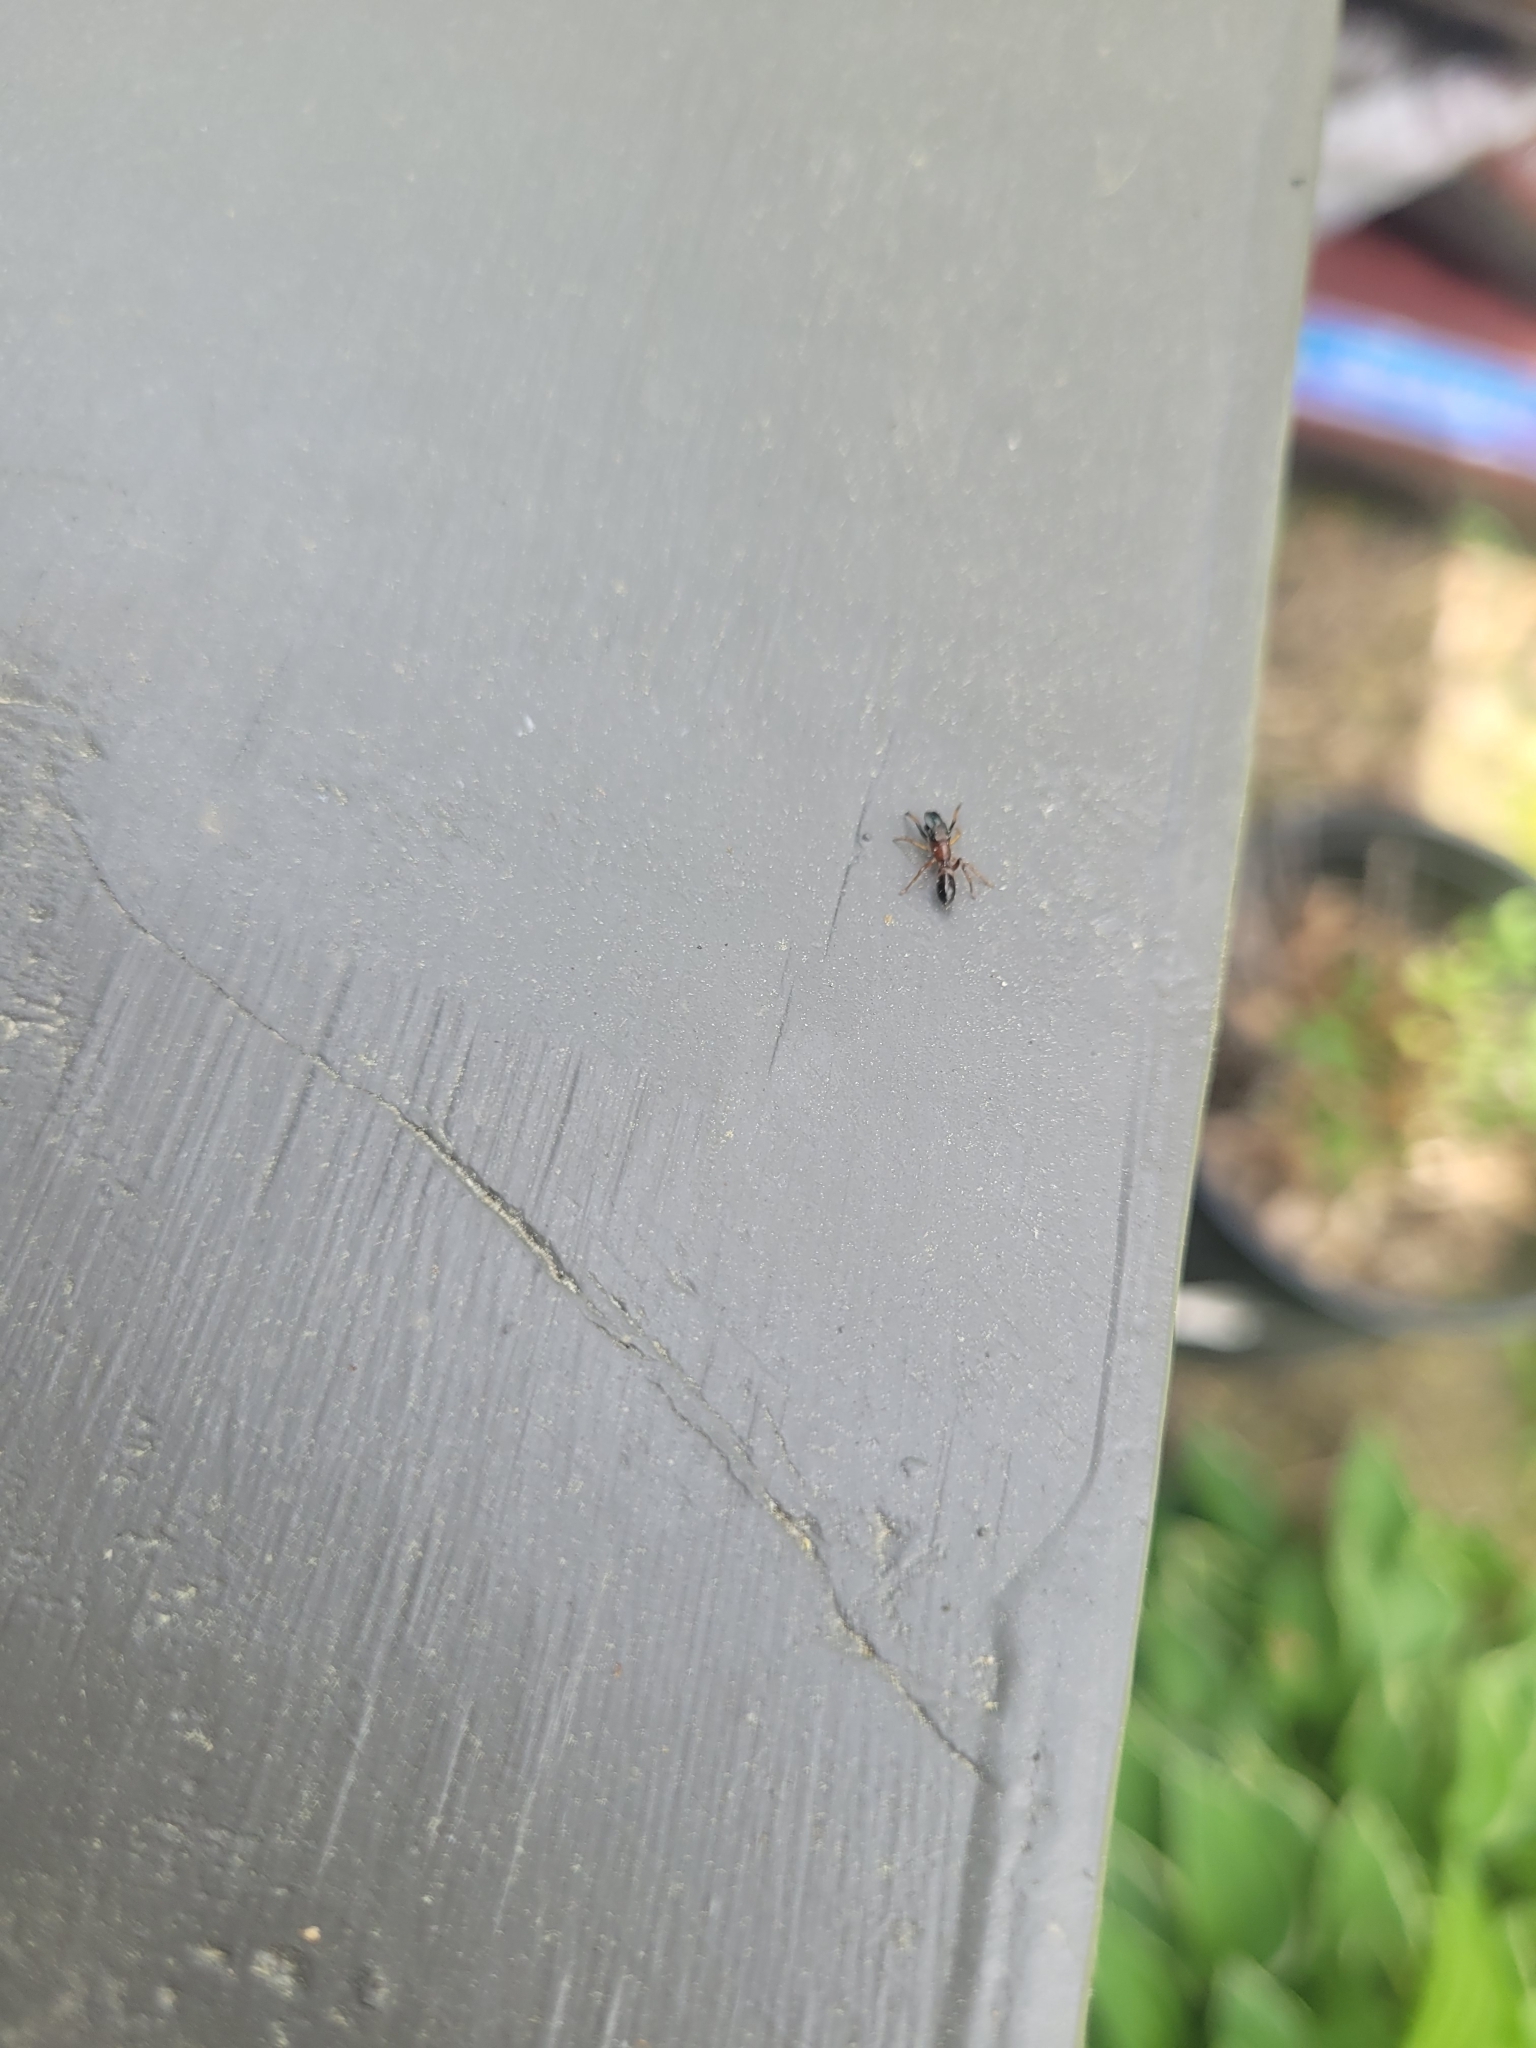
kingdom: Animalia
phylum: Arthropoda
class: Arachnida
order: Araneae
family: Salticidae
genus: Myrmarachne
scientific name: Myrmarachne formicaria
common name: Ant mimic jumping spider
